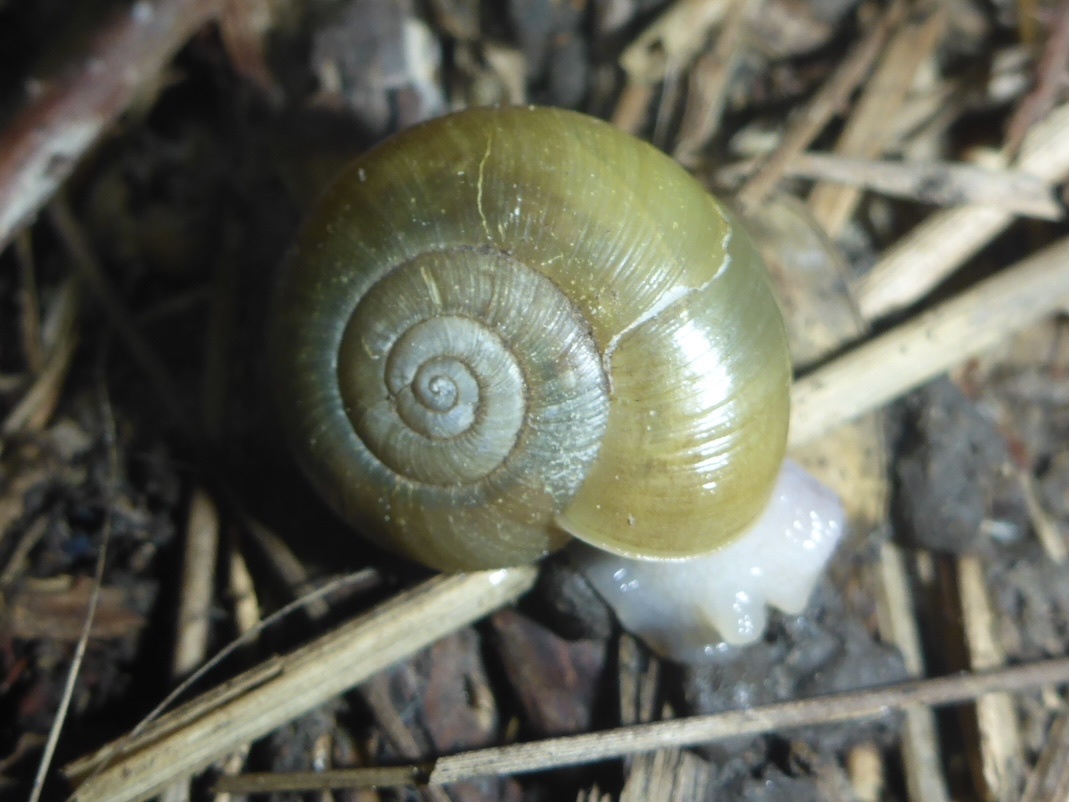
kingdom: Animalia
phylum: Mollusca
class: Gastropoda
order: Stylommatophora
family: Haplotrematidae
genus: Haplotrema
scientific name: Haplotrema minimum
